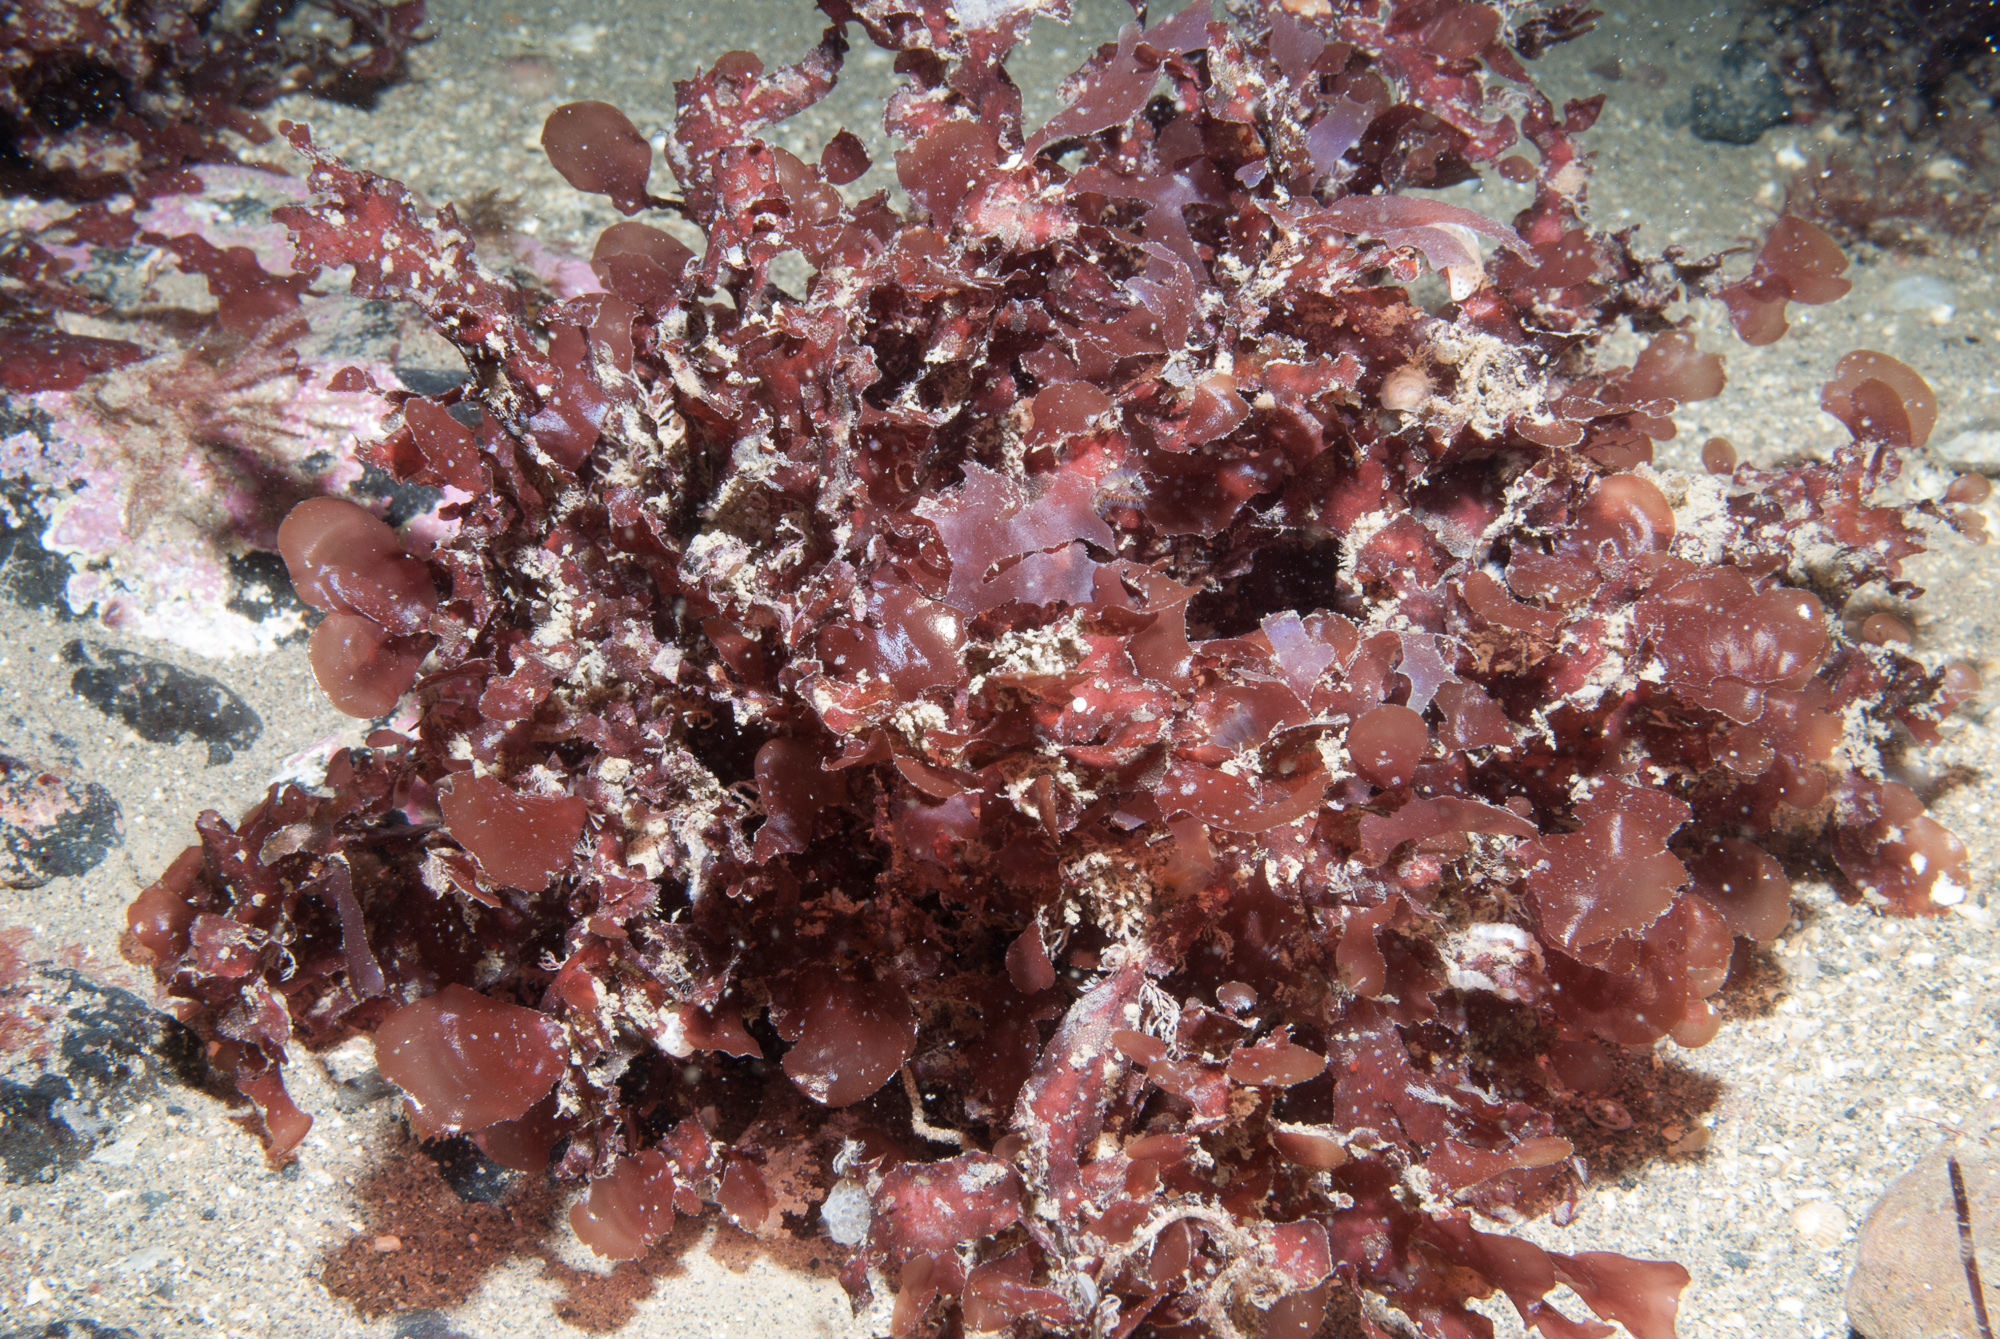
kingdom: Plantae
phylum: Rhodophyta
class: Florideophyceae
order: Gigartinales
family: Phyllophoraceae
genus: Phyllophora
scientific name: Phyllophora crispa
